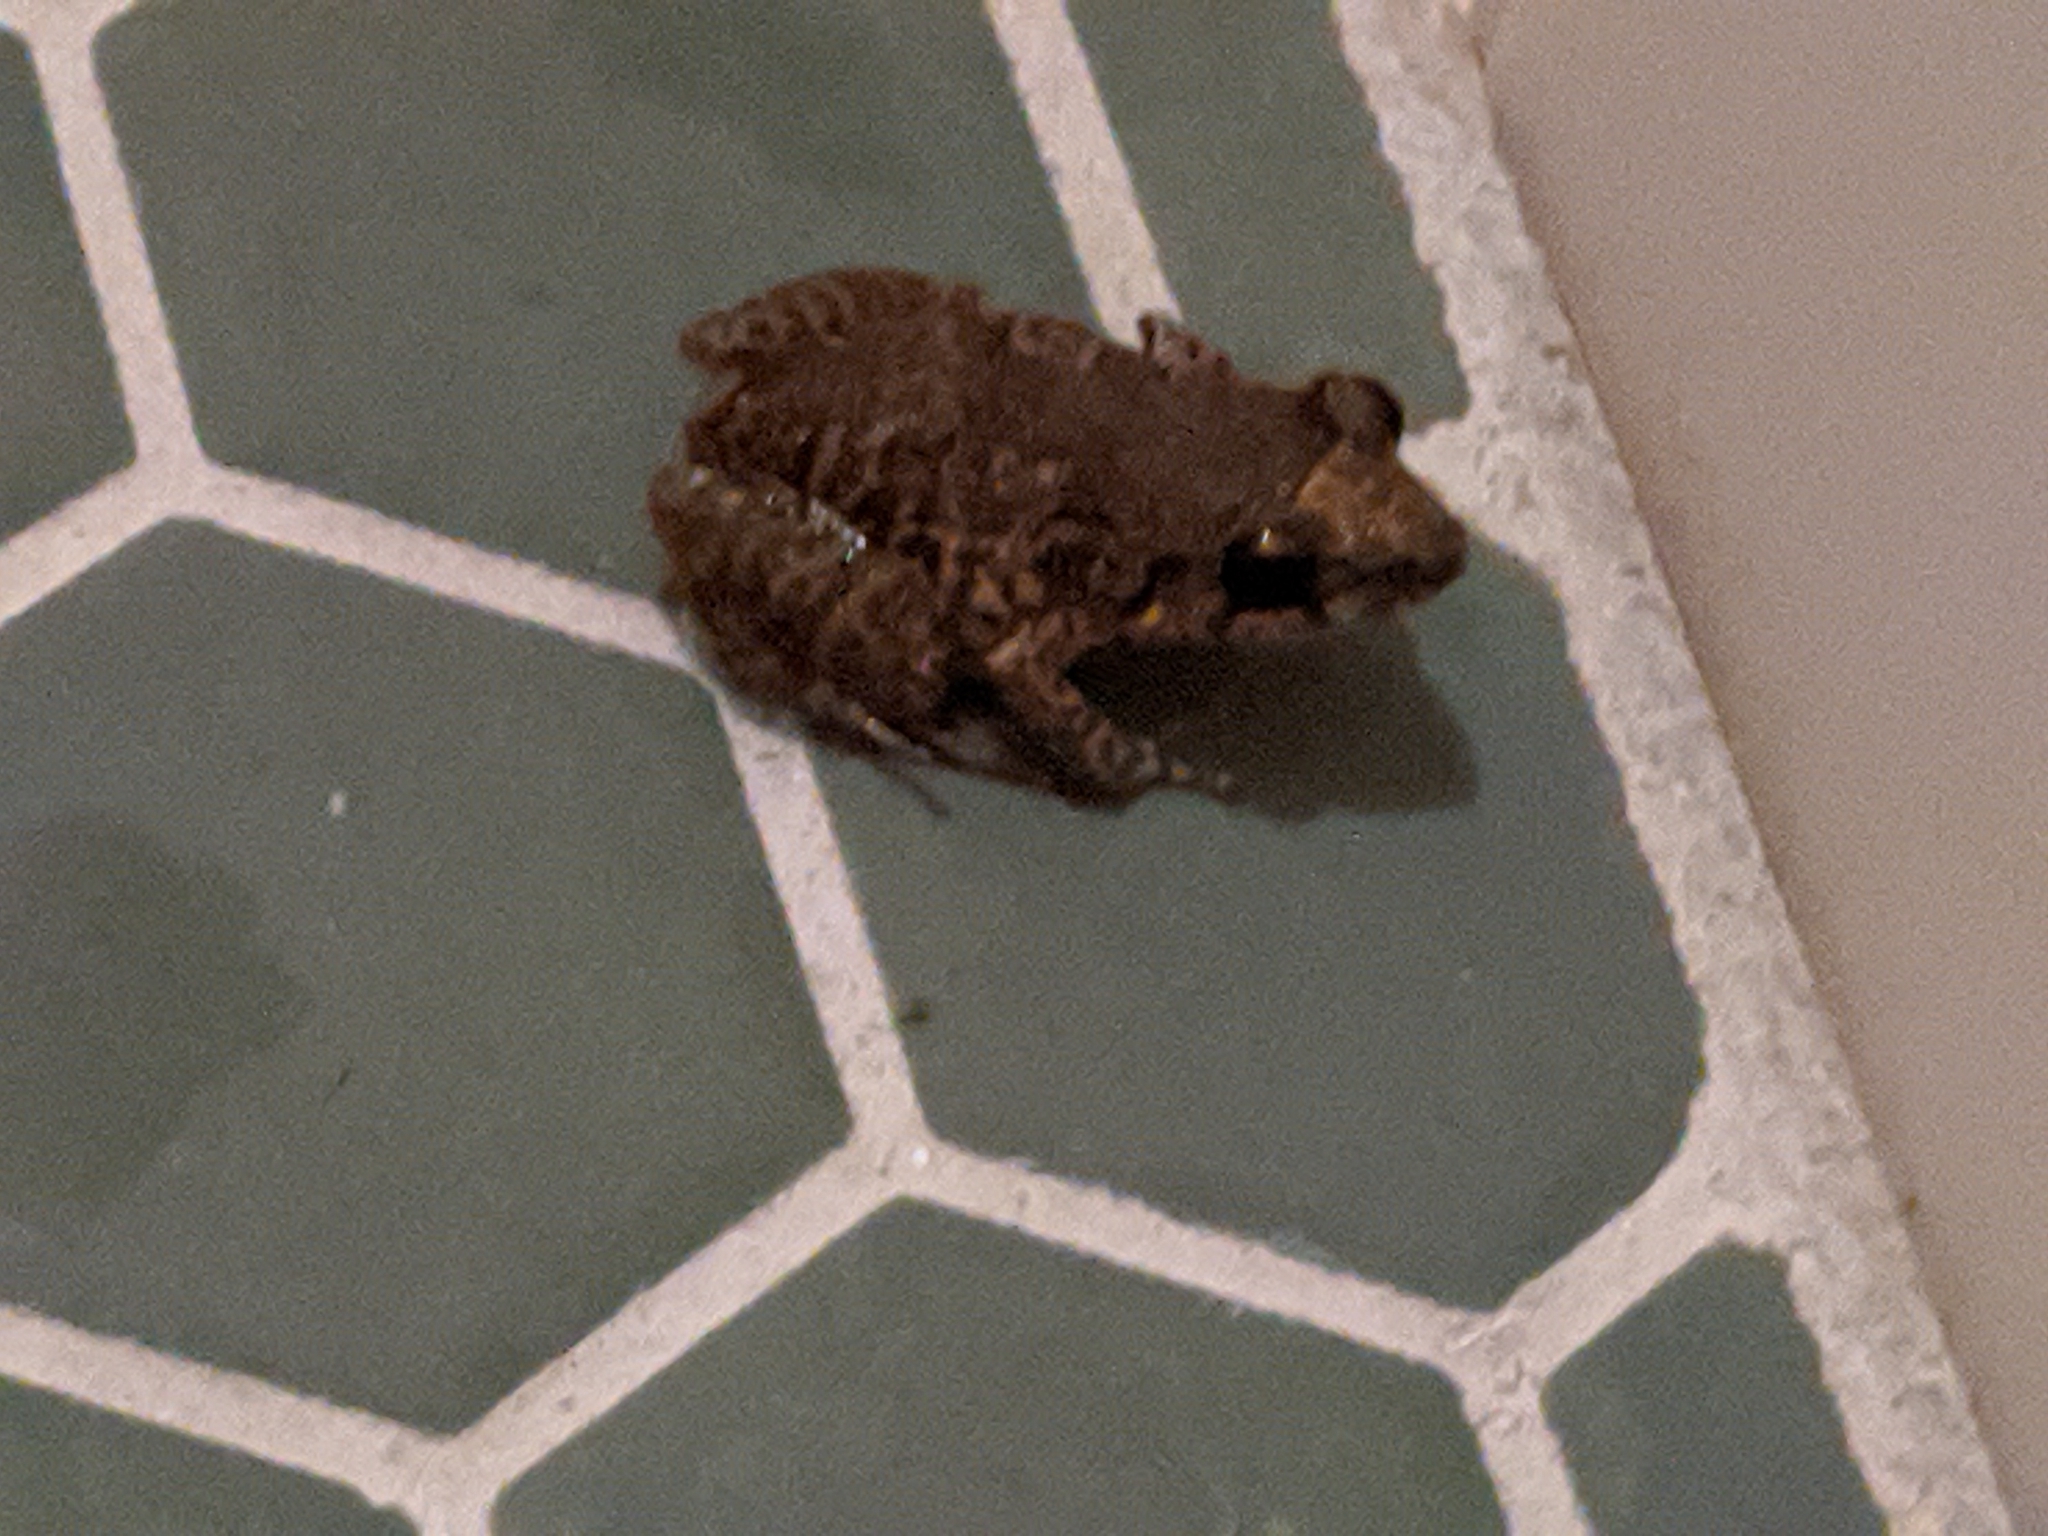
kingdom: Animalia
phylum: Chordata
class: Amphibia
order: Anura
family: Eleutherodactylidae
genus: Eleutherodactylus
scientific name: Eleutherodactylus planirostris
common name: Greenhouse frog
